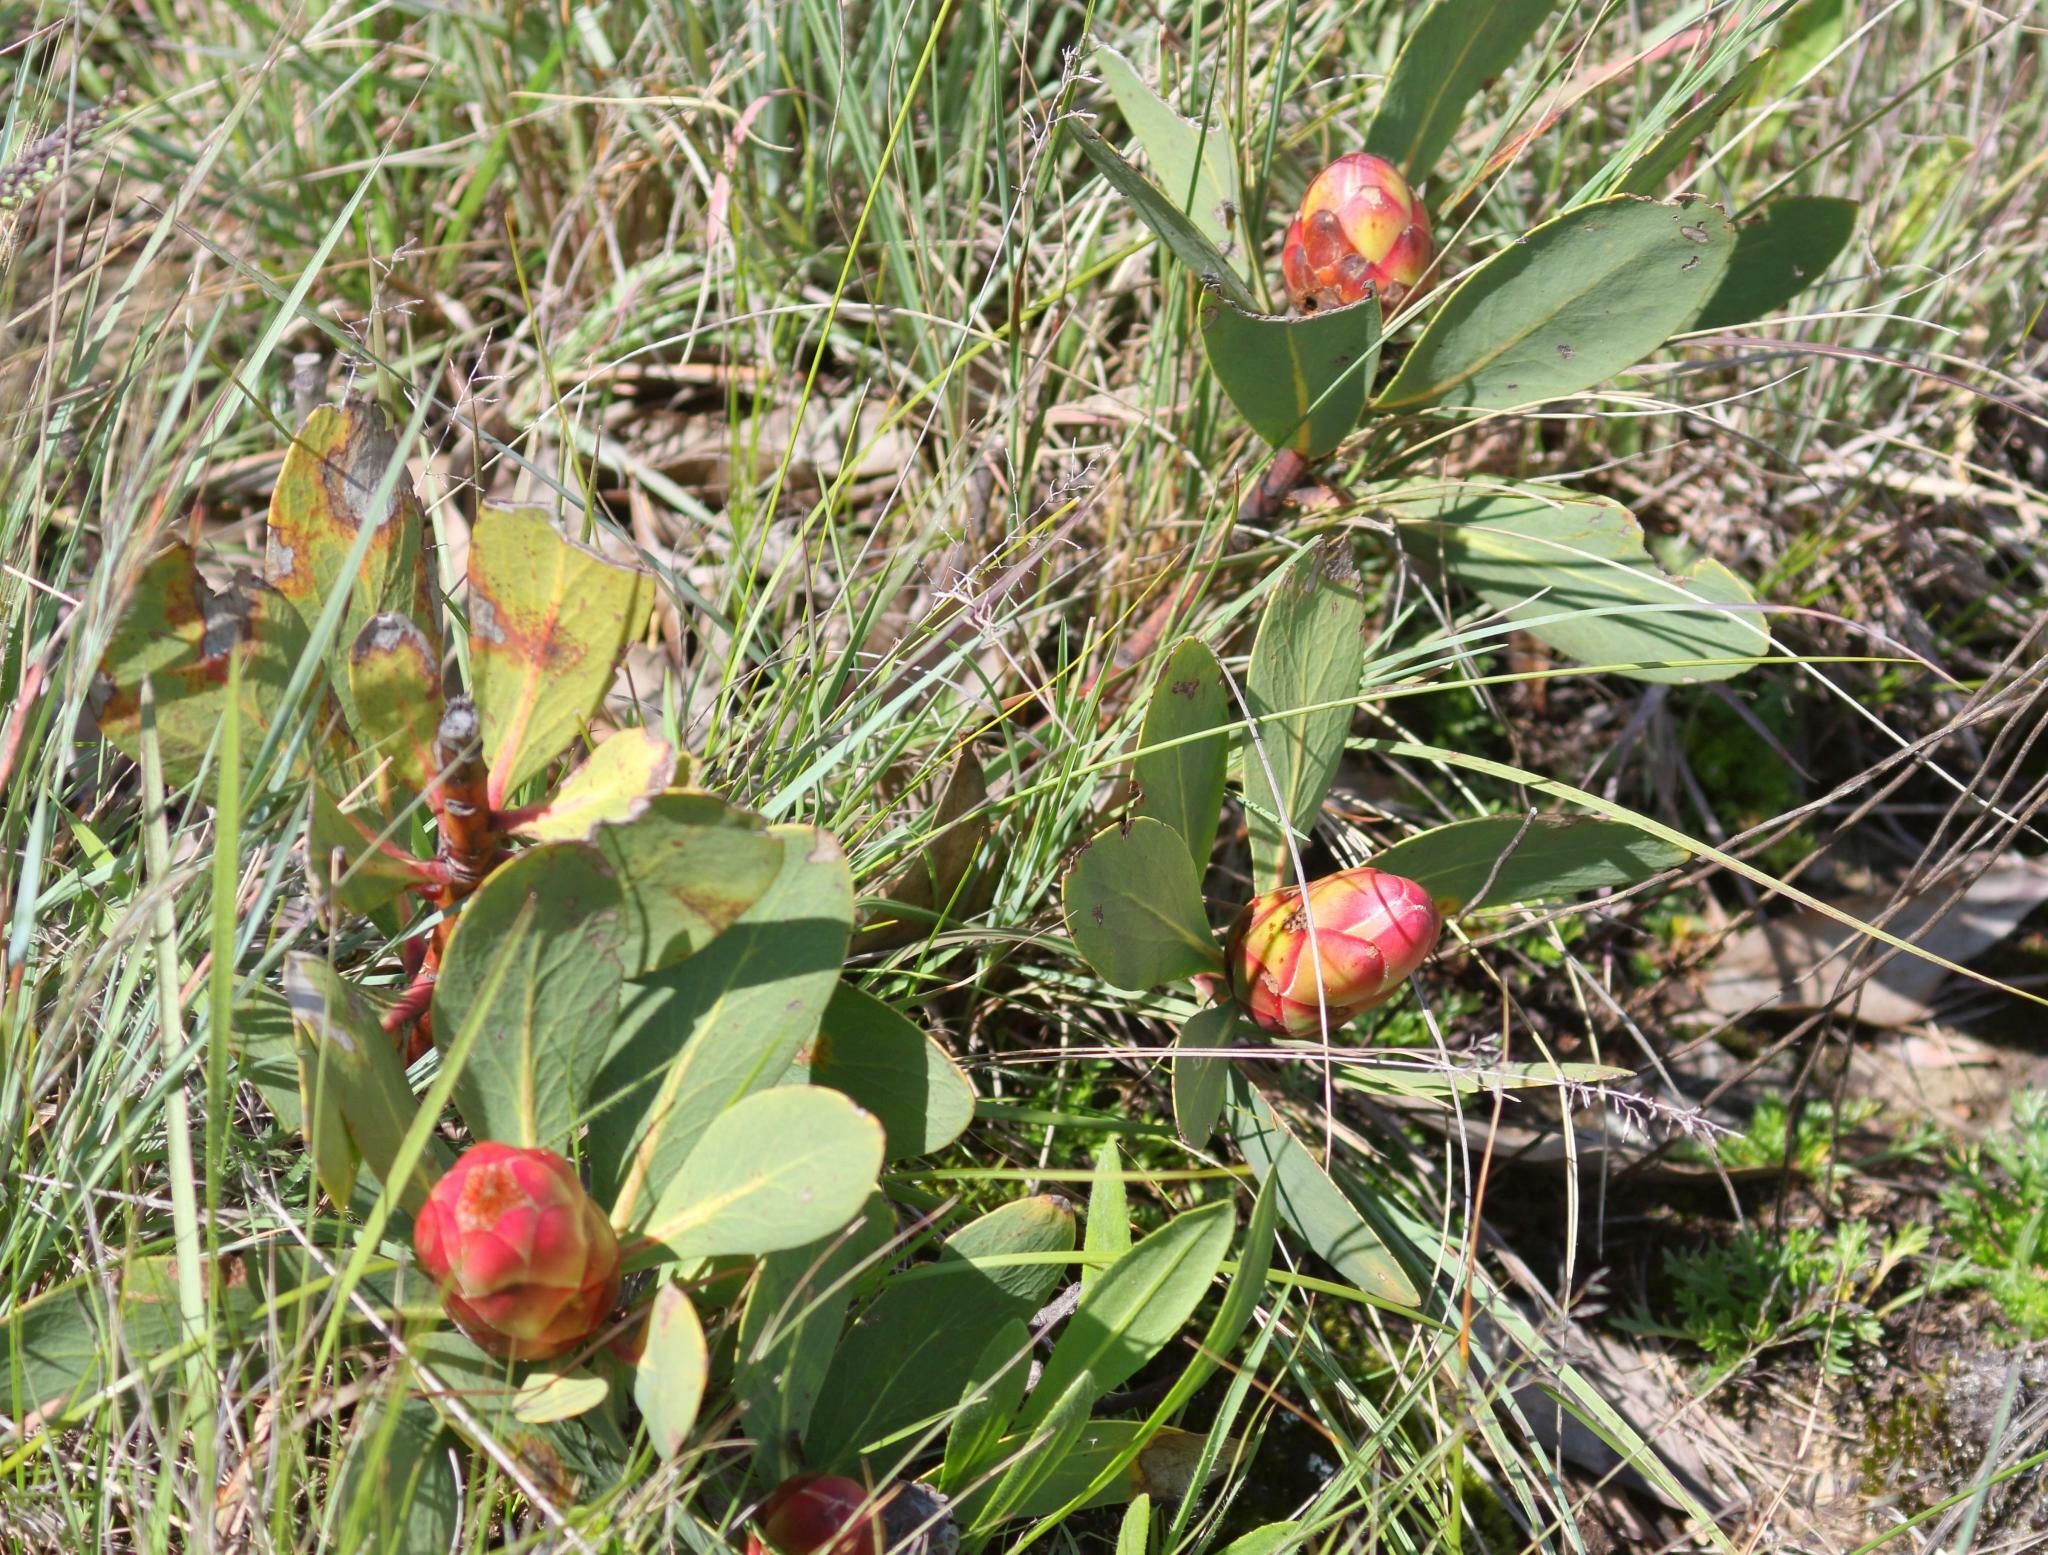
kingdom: Plantae
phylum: Tracheophyta
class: Magnoliopsida
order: Proteales
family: Proteaceae
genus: Protea
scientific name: Protea dracomontana
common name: Drakensberg dwarf sugarbush
